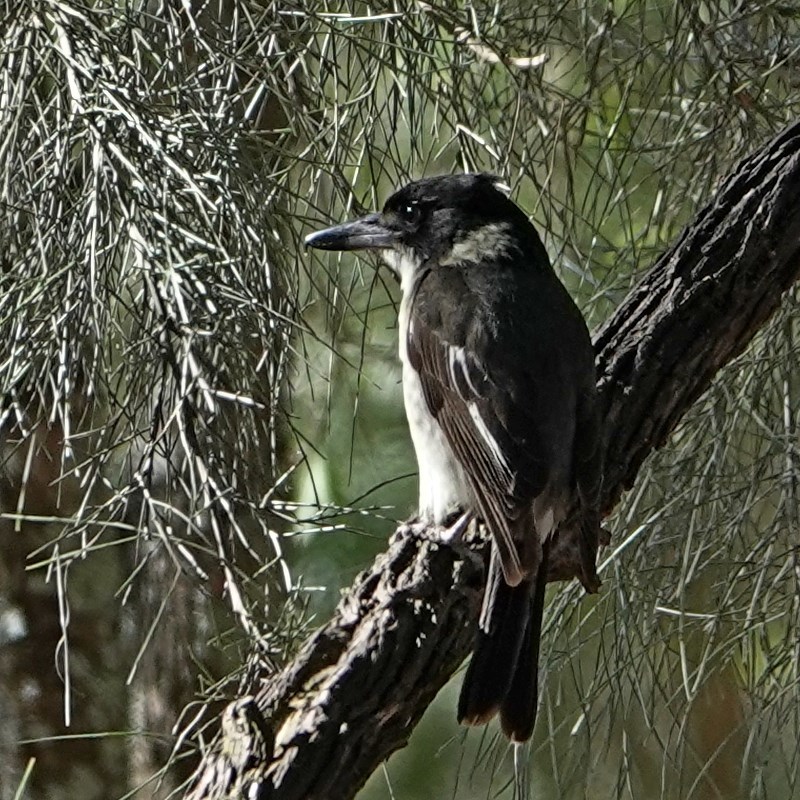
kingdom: Animalia
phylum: Chordata
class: Aves
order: Passeriformes
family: Cracticidae
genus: Cracticus
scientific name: Cracticus torquatus
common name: Grey butcherbird
